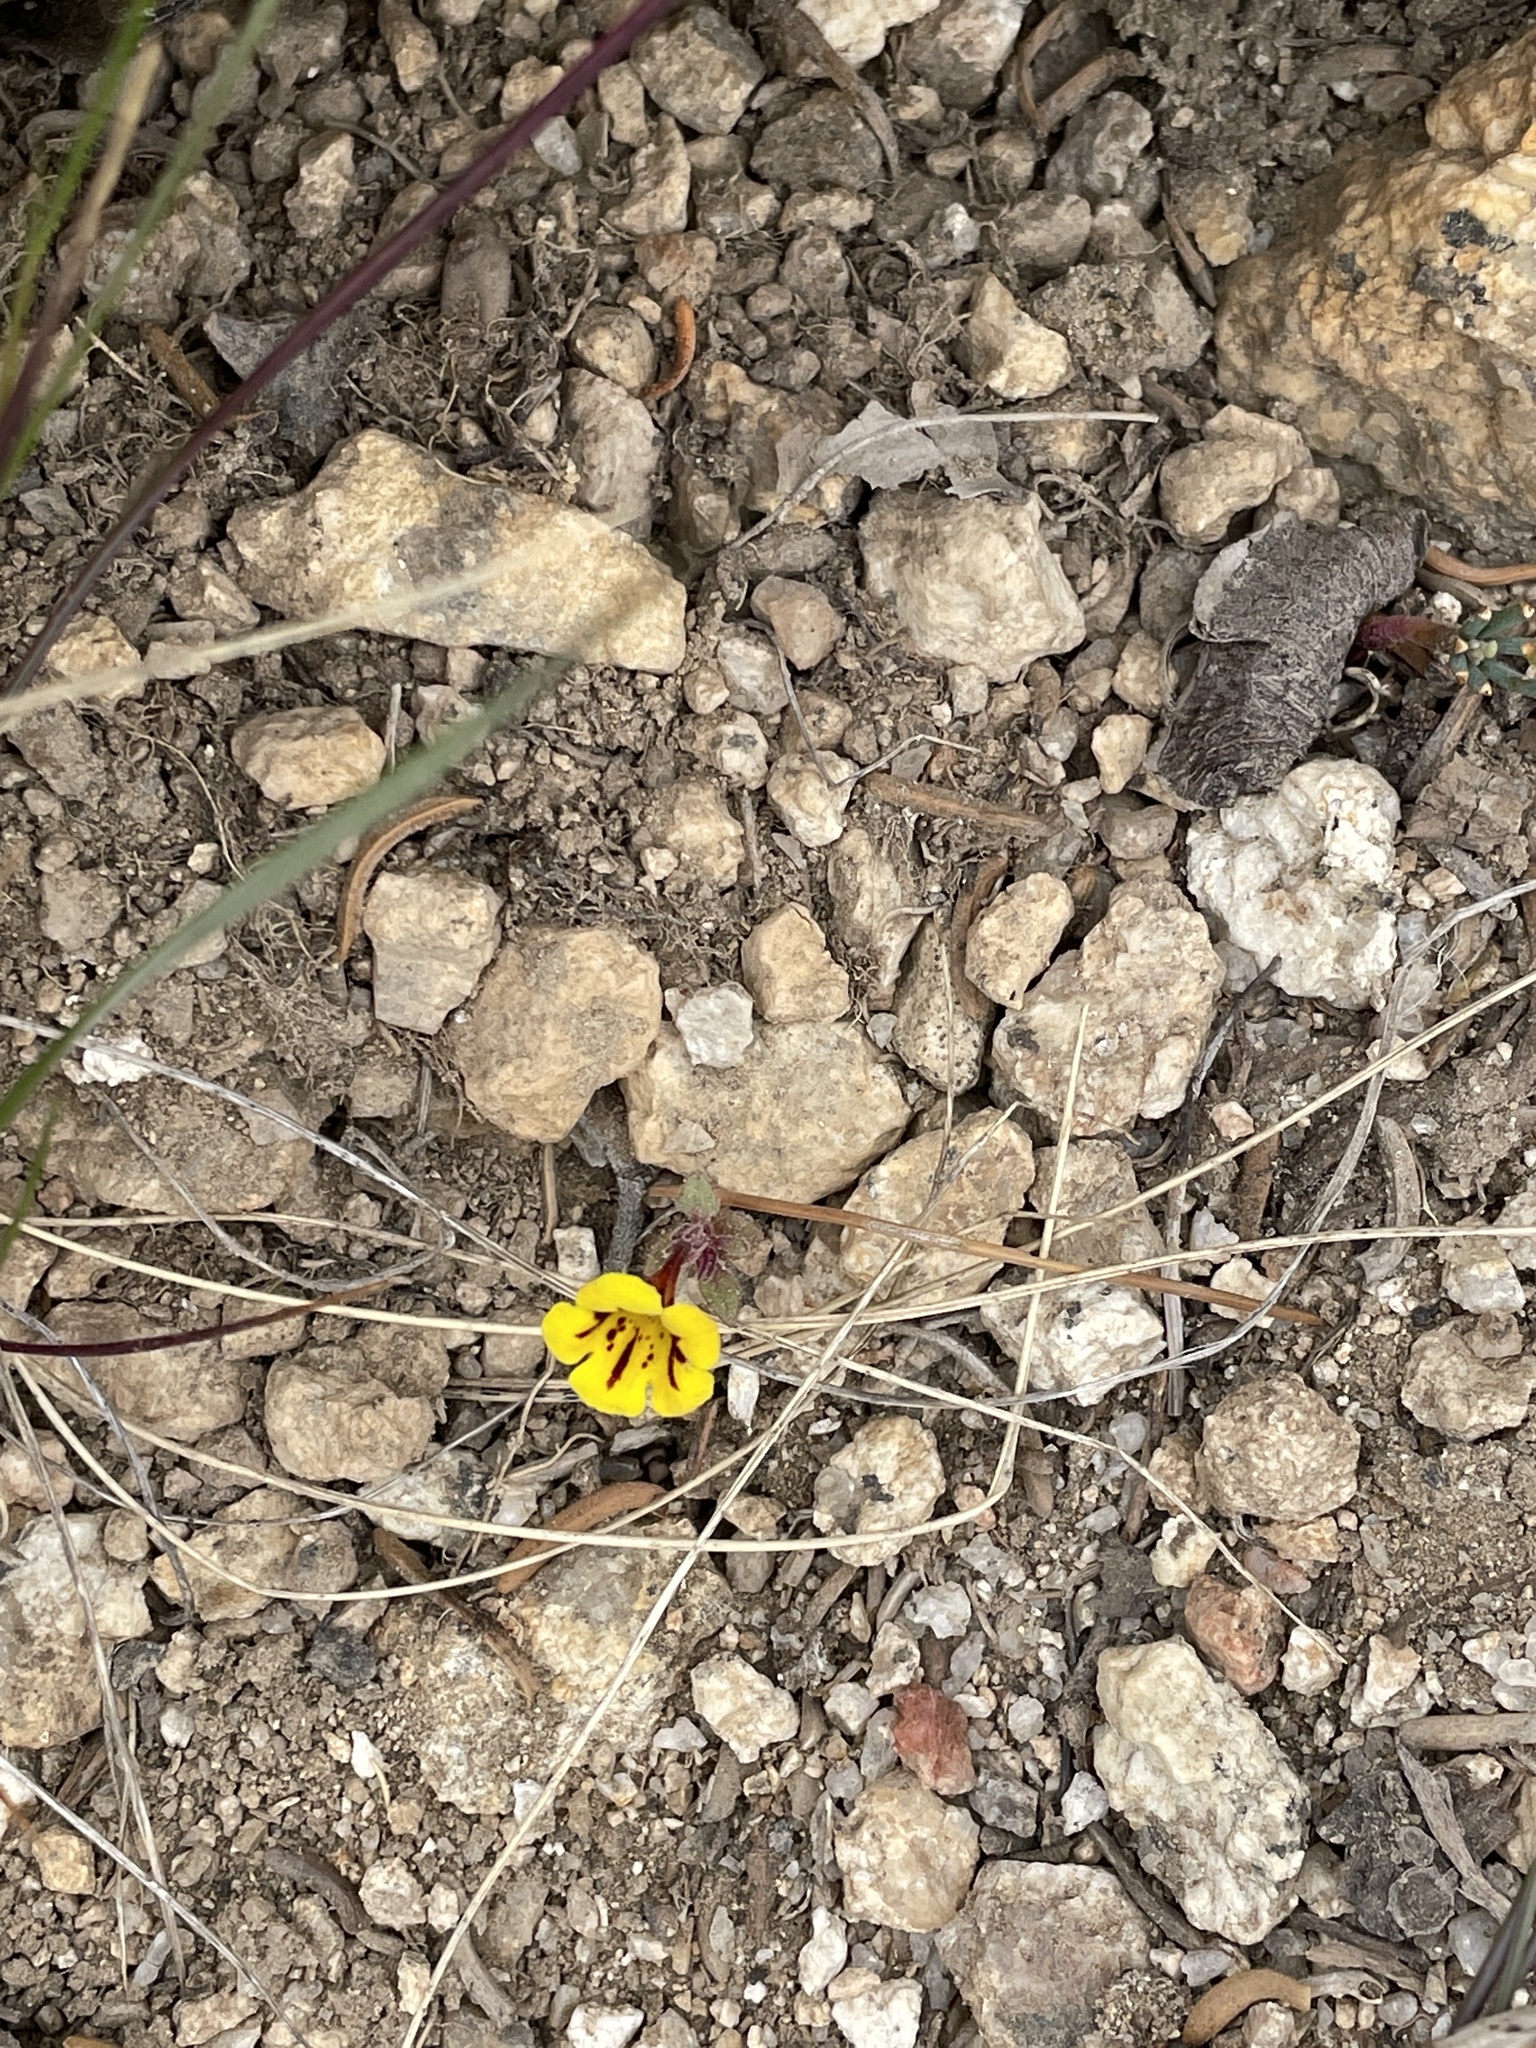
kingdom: Plantae
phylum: Tracheophyta
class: Magnoliopsida
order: Lamiales
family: Phrymaceae
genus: Diplacus
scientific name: Diplacus bicolor
